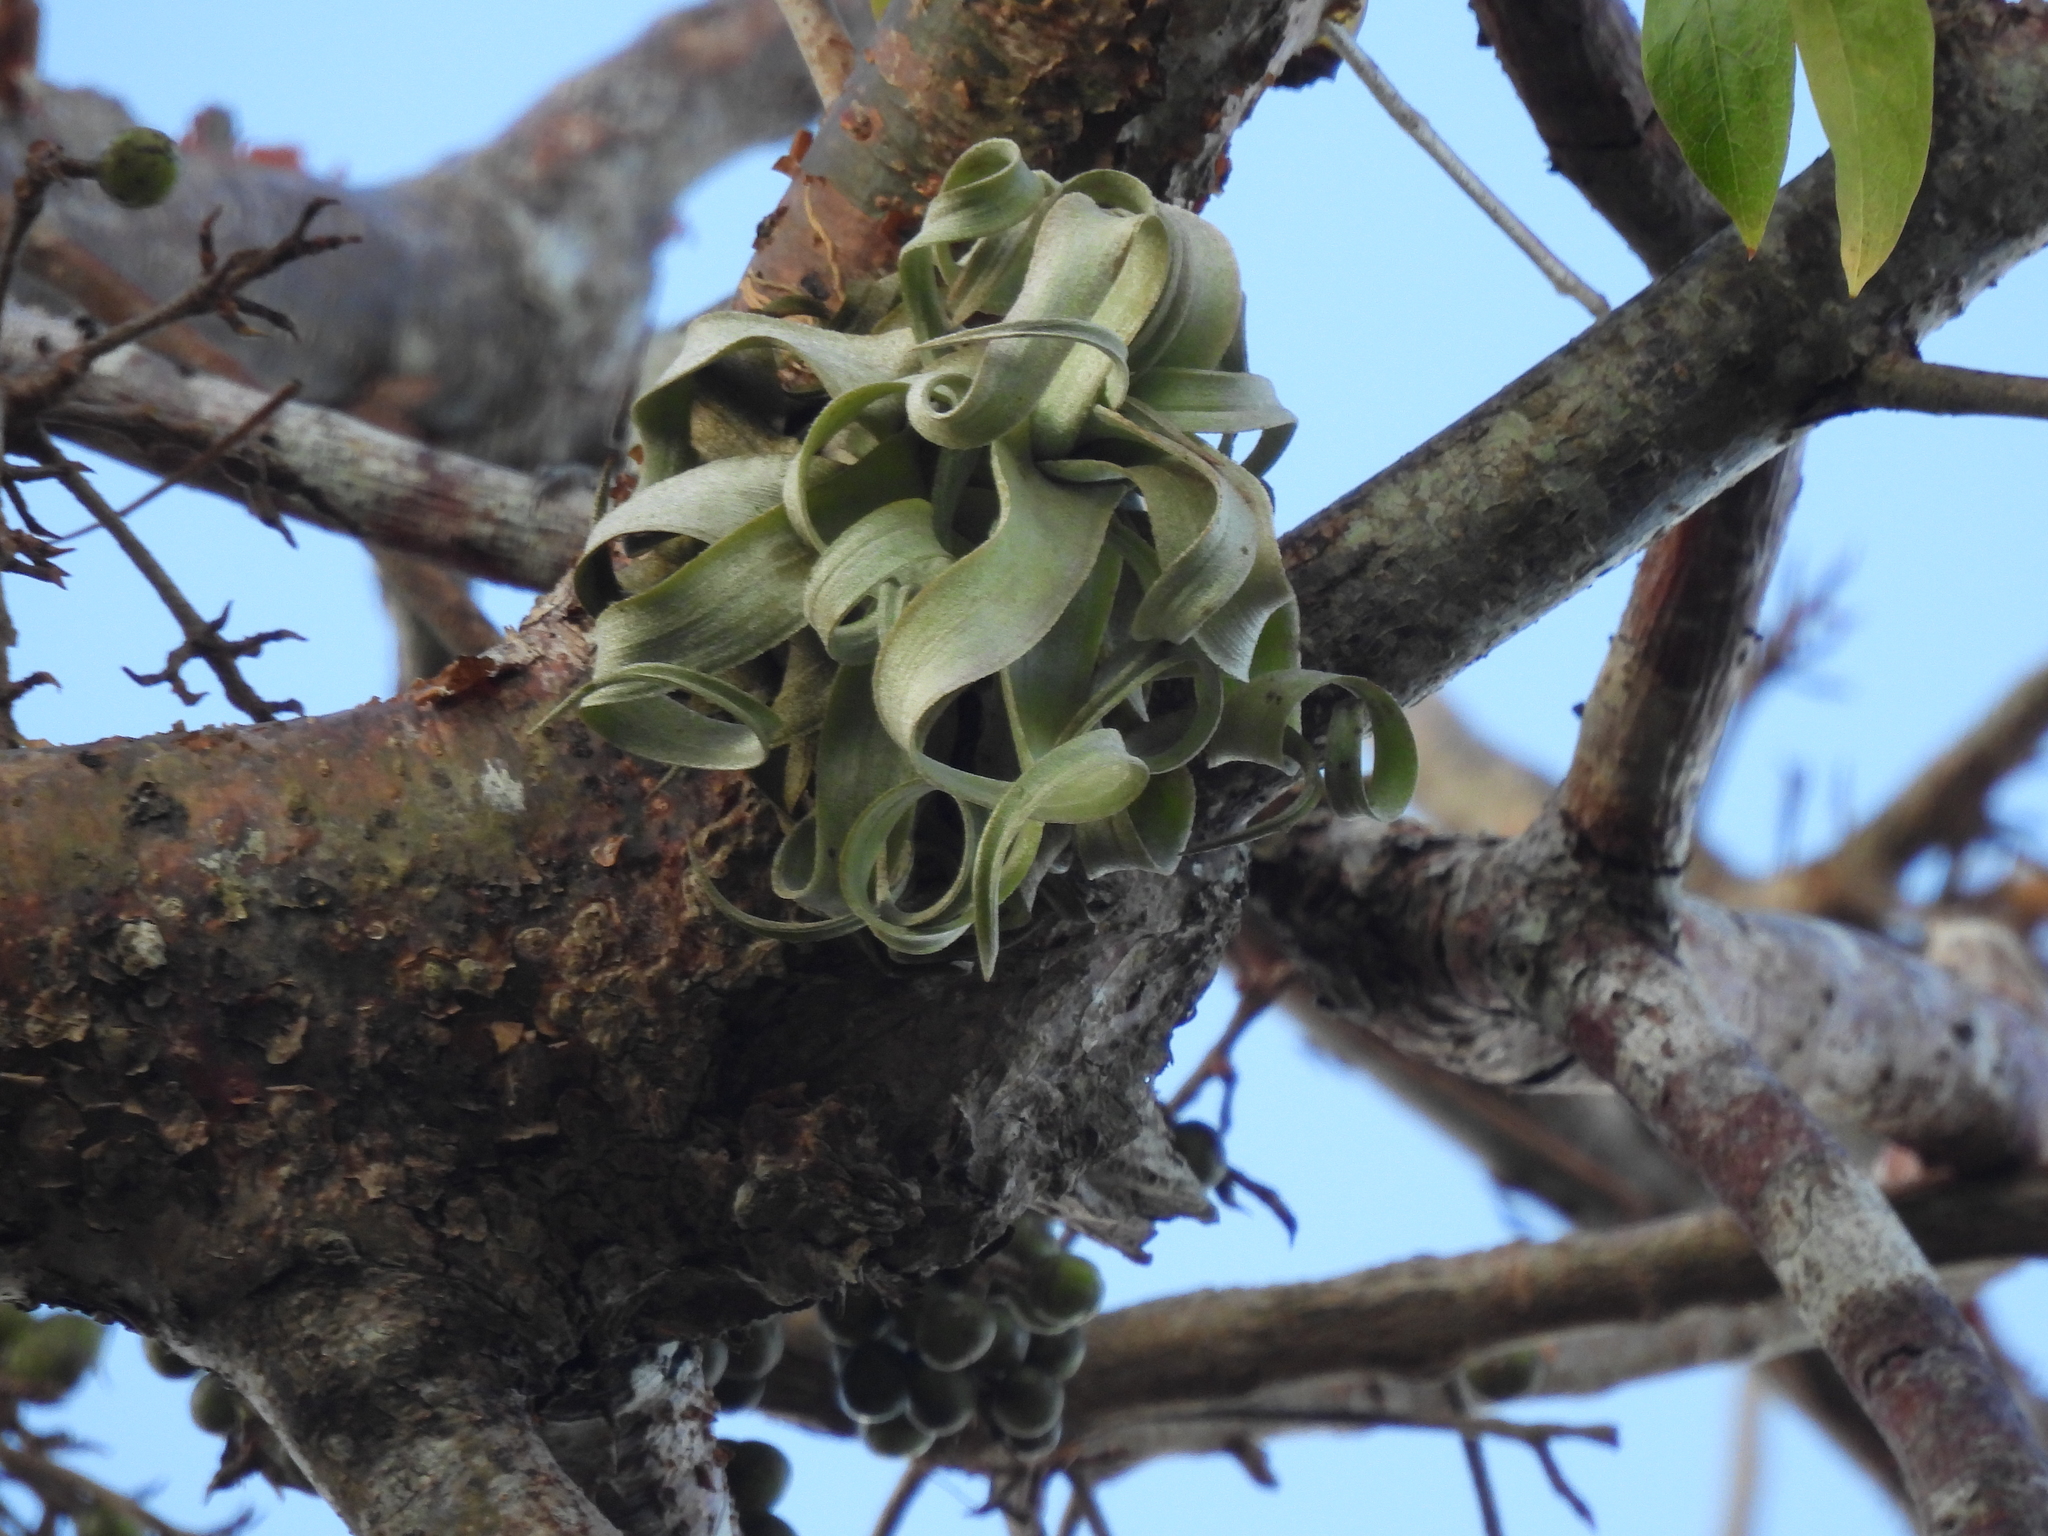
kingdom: Plantae
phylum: Tracheophyta
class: Liliopsida
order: Poales
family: Bromeliaceae
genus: Tillandsia
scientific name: Tillandsia streptophylla
